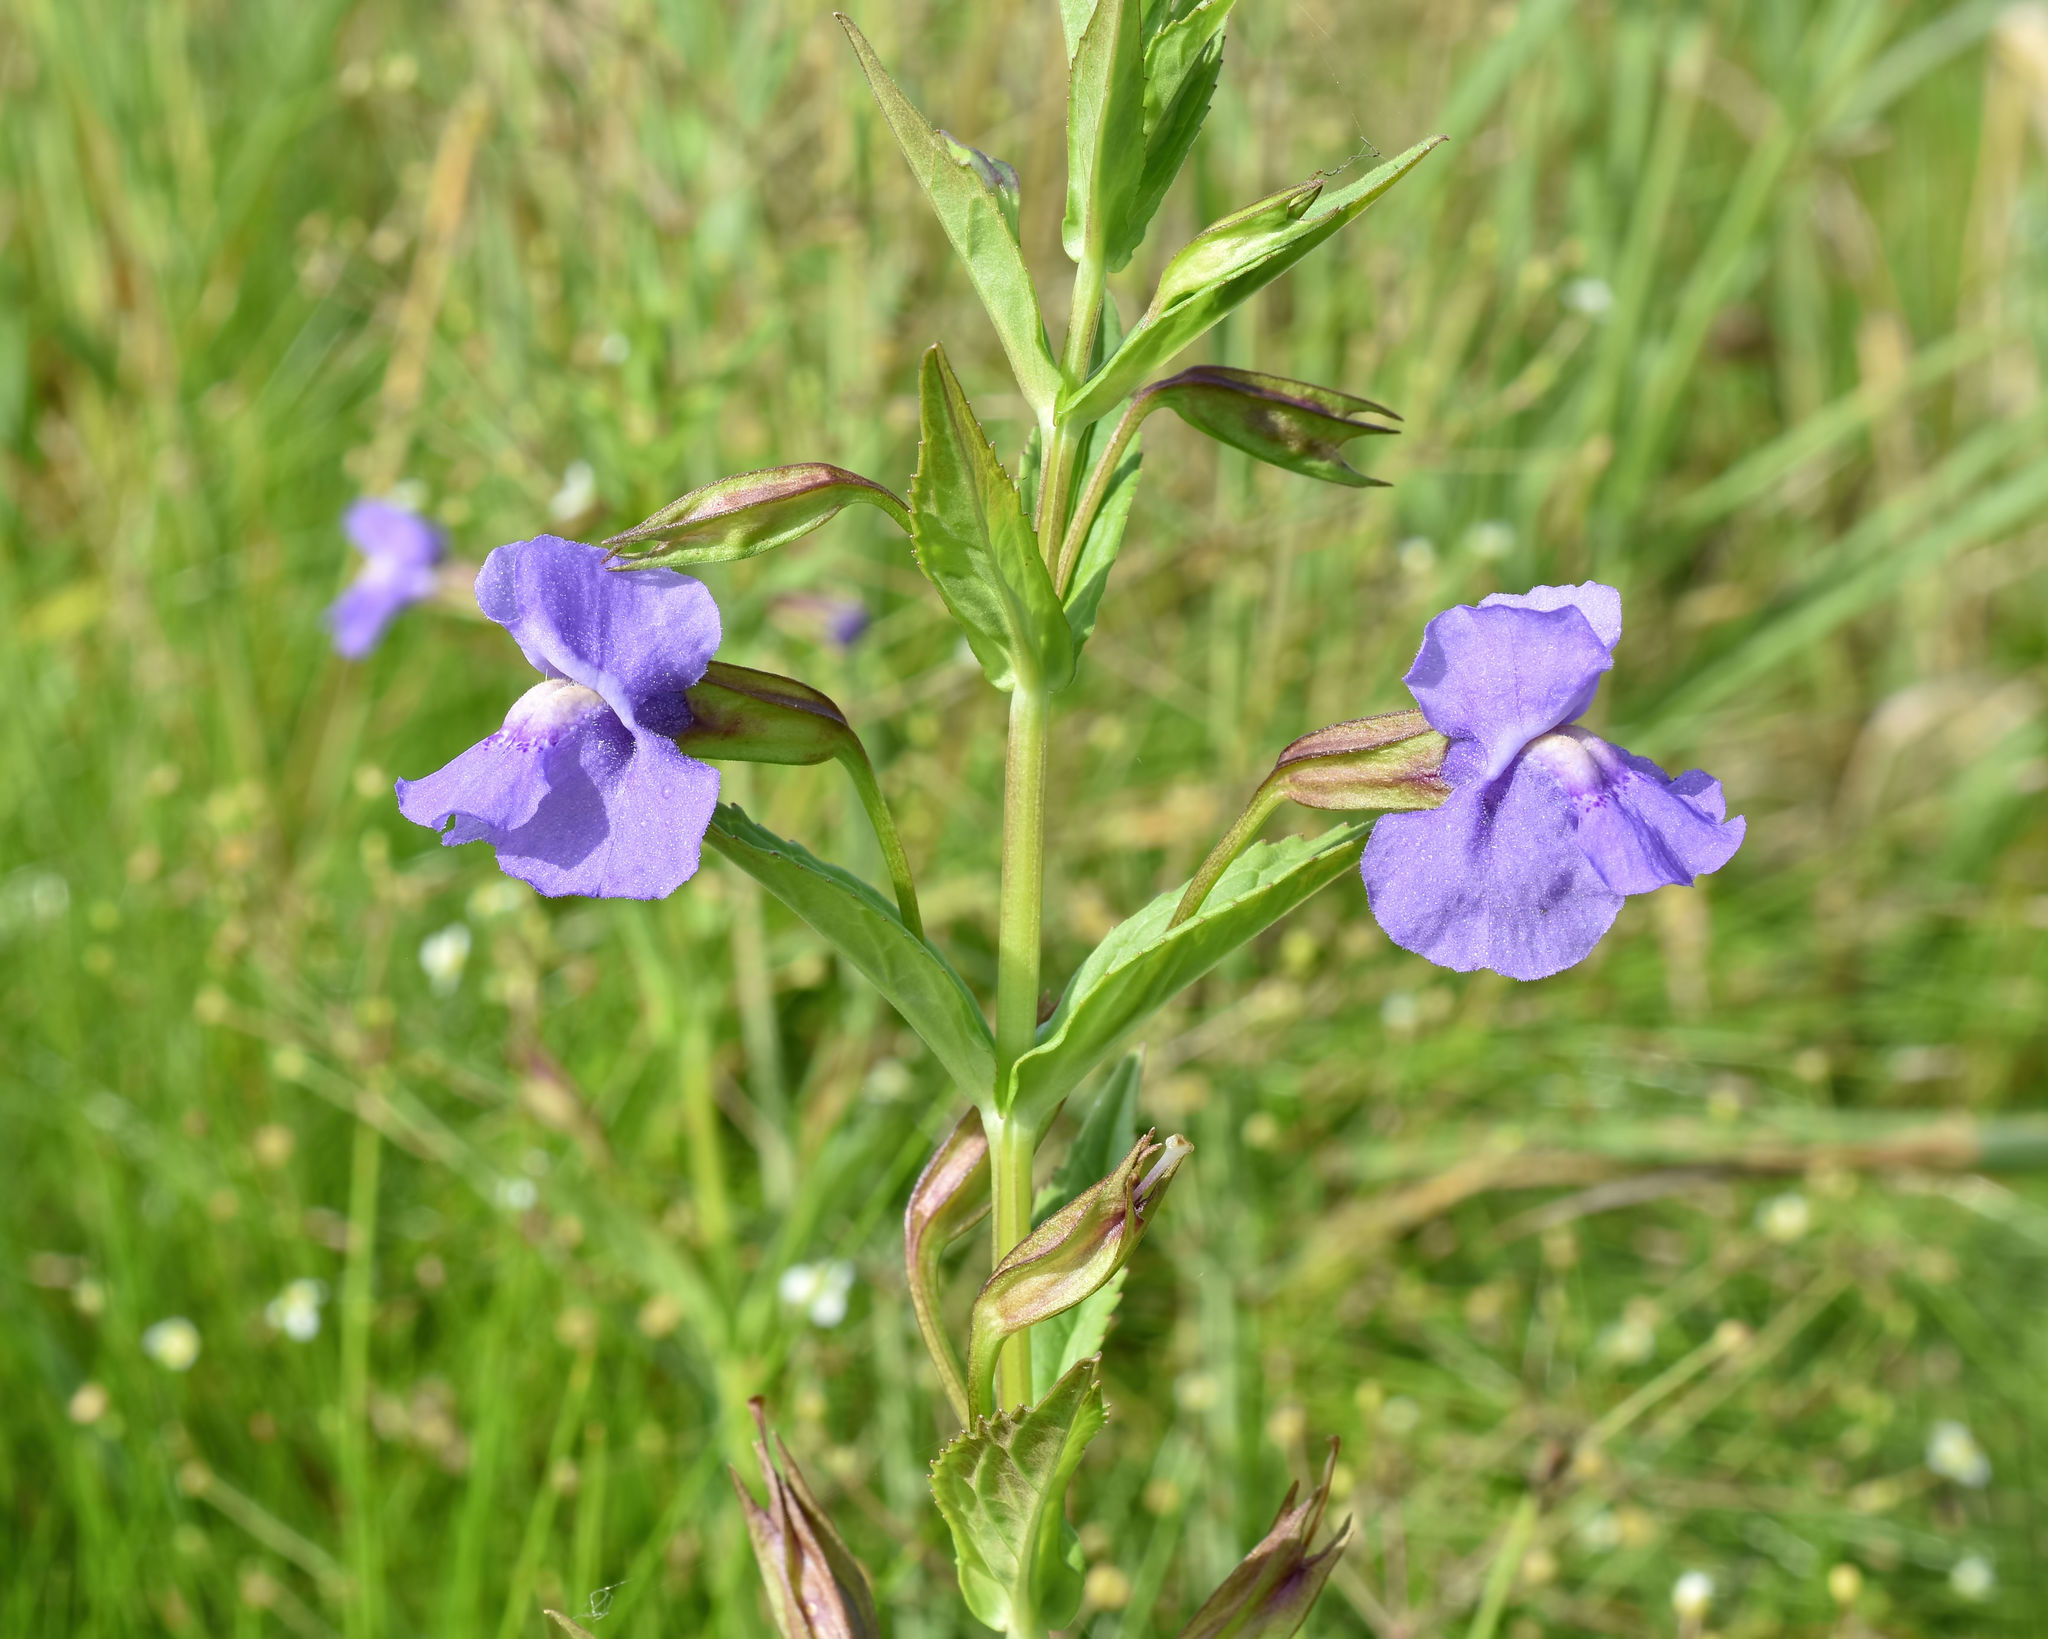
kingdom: Plantae
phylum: Tracheophyta
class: Magnoliopsida
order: Lamiales
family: Phrymaceae
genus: Mimulus
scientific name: Mimulus ringens
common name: Allegheny monkeyflower
